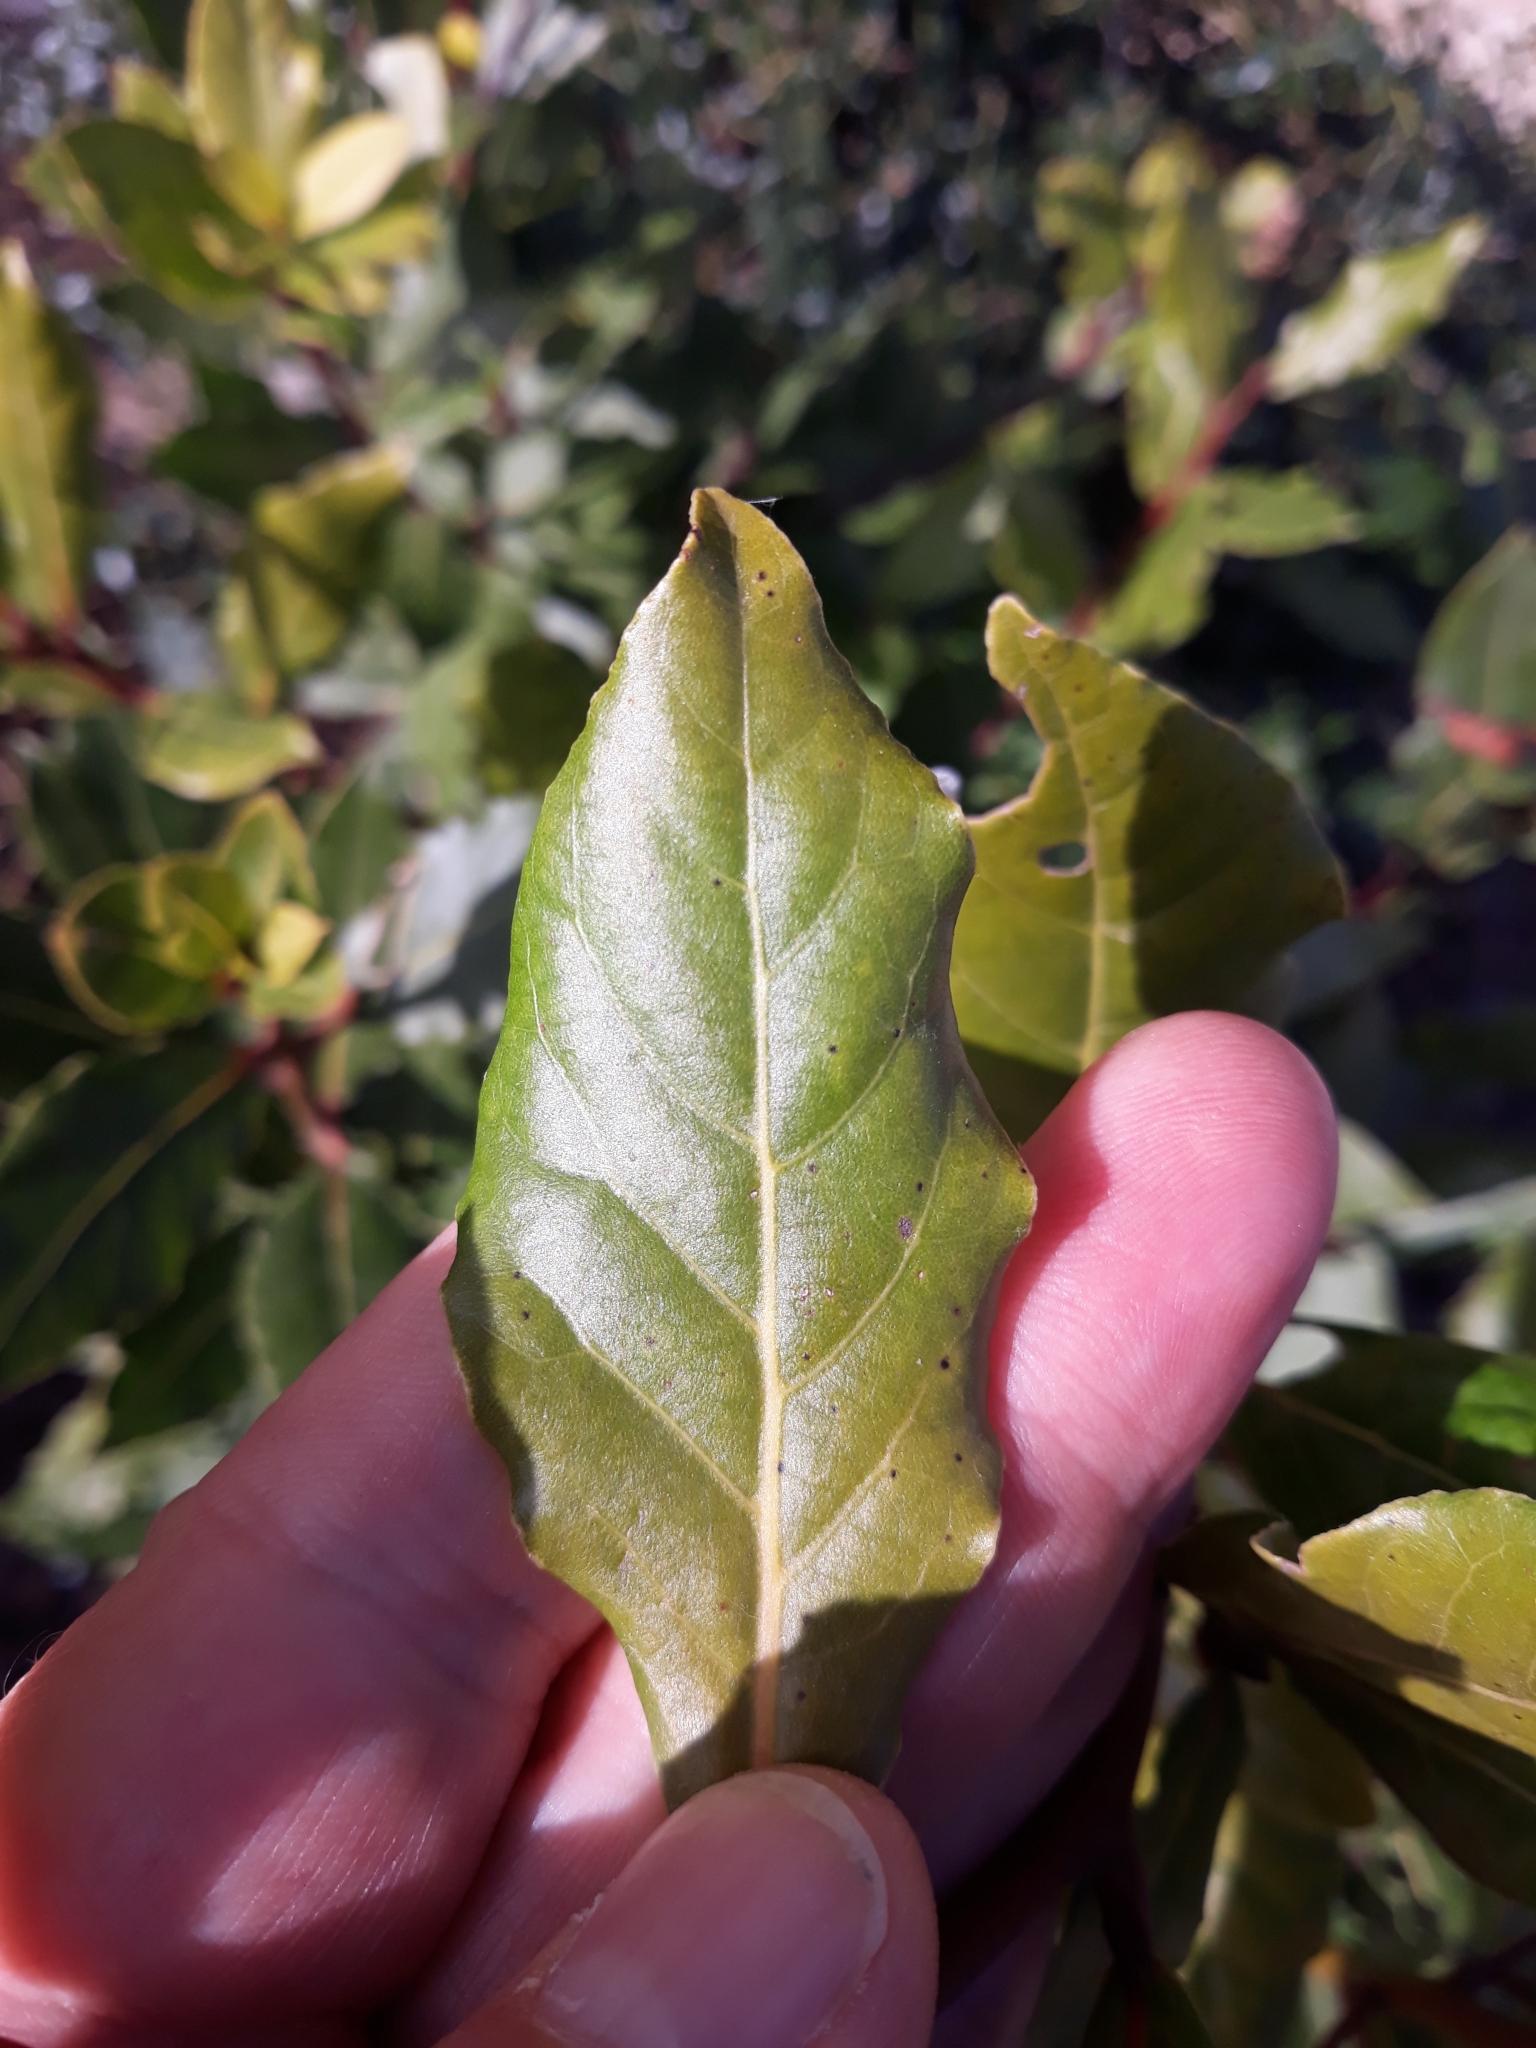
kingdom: Plantae
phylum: Tracheophyta
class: Magnoliopsida
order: Laurales
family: Lauraceae
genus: Laurus
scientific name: Laurus nobilis
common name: Bay
